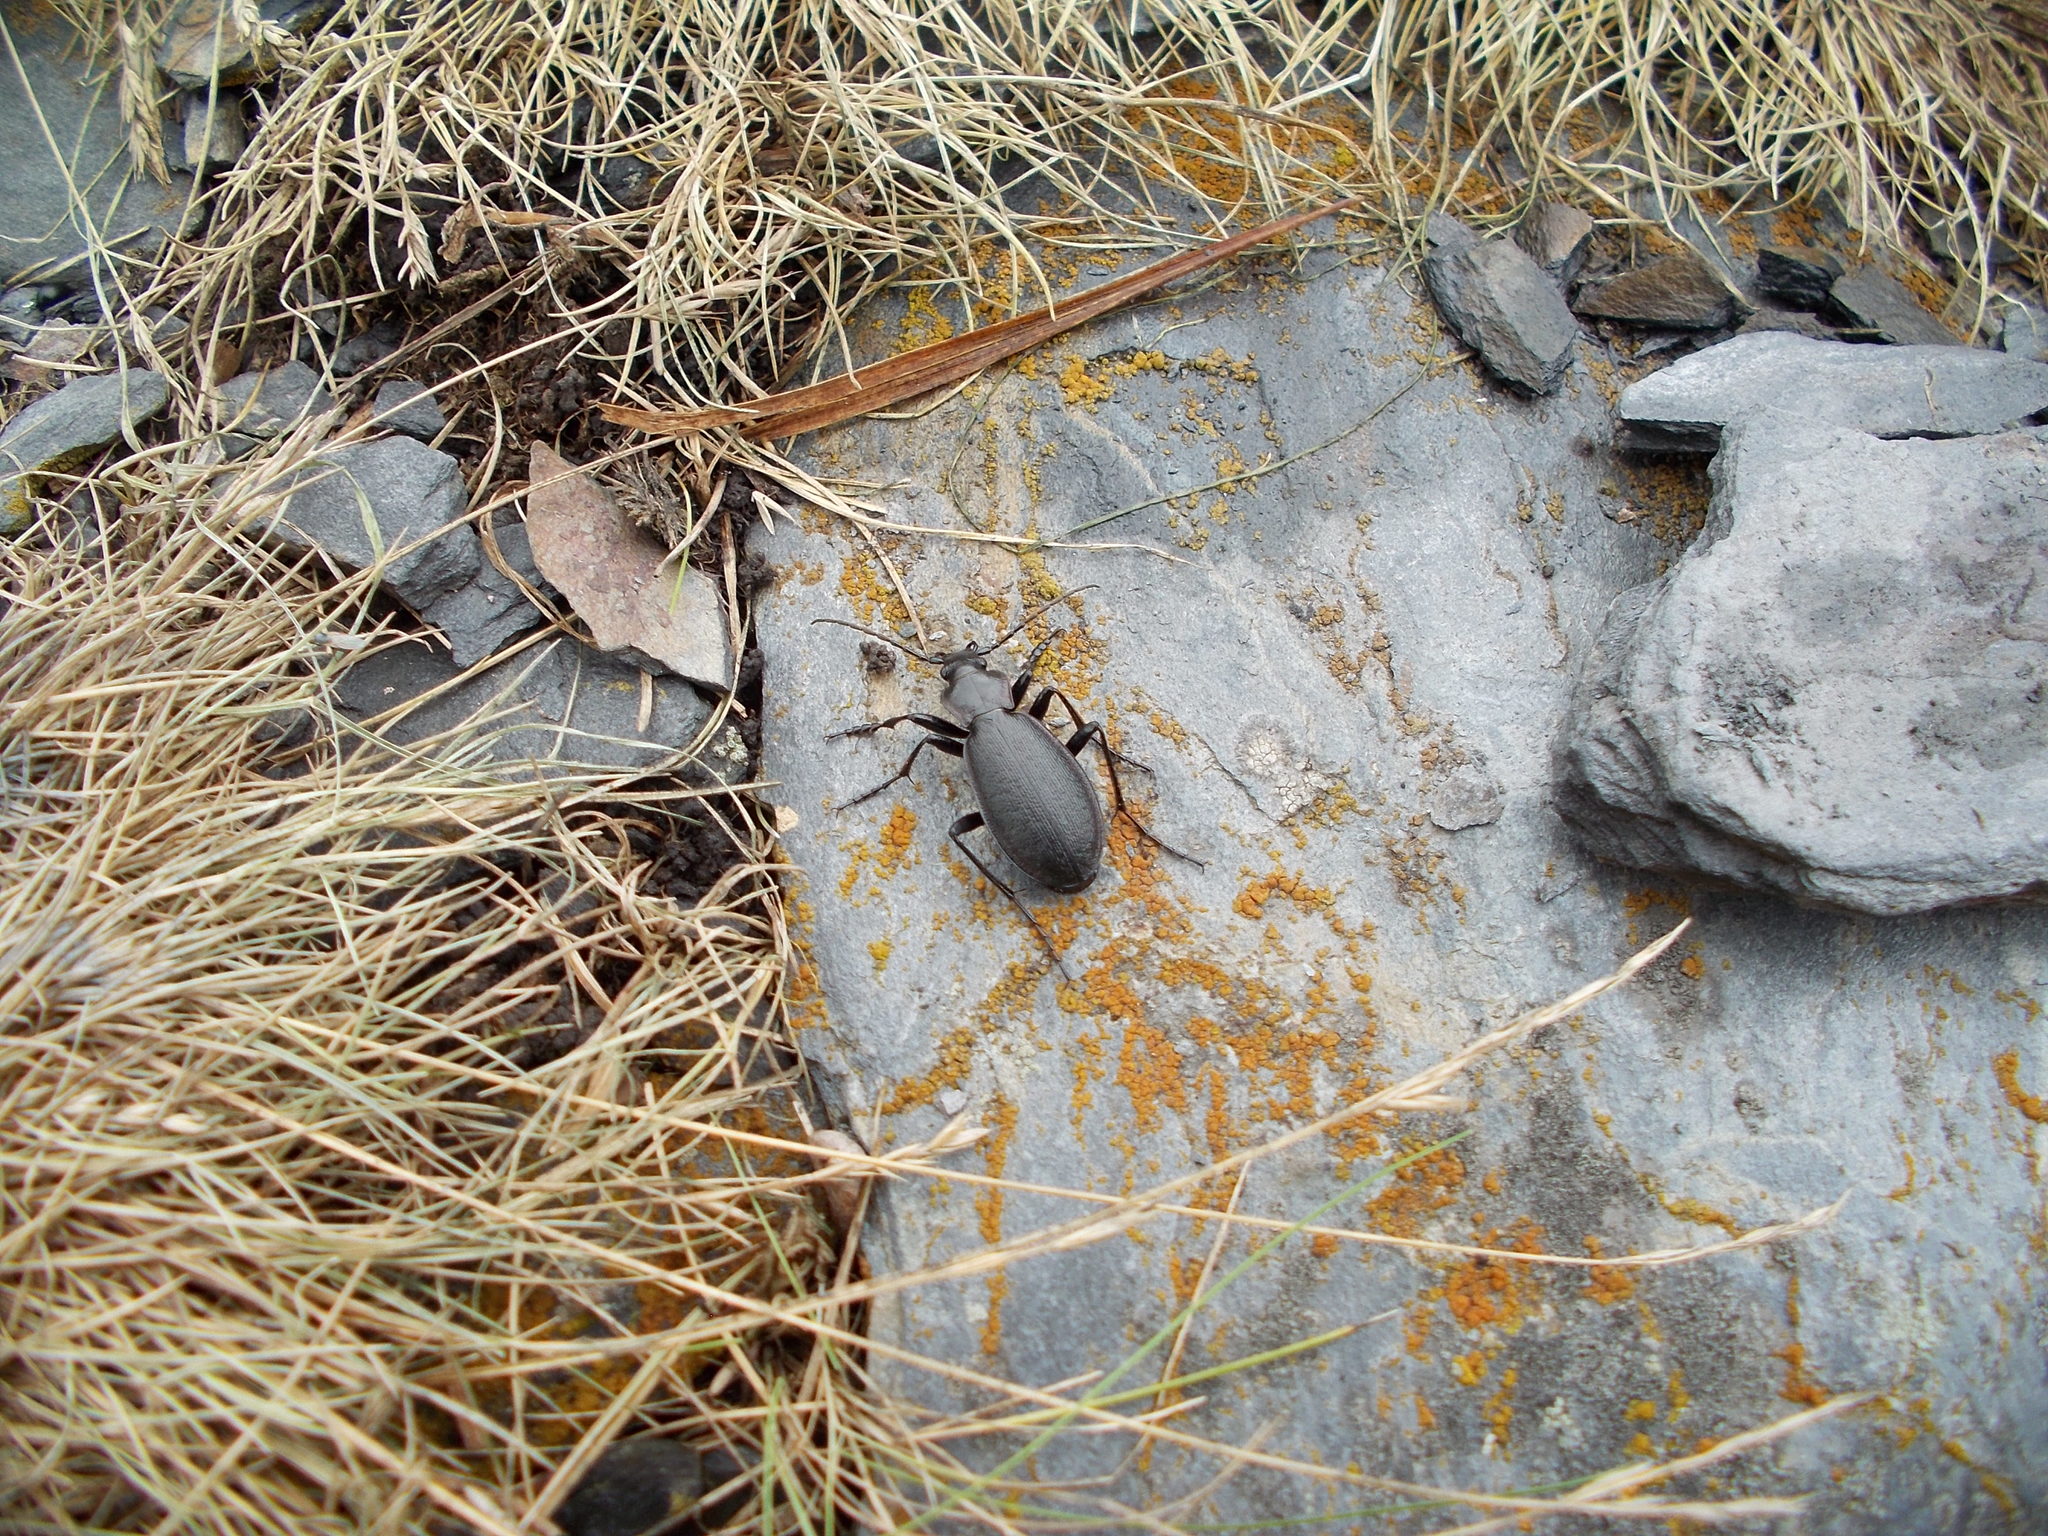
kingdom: Animalia
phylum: Arthropoda
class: Insecta
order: Coleoptera
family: Carabidae
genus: Carabus
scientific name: Carabus karpinskii
